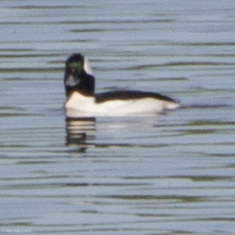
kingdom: Animalia
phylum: Chordata
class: Aves
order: Anseriformes
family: Anatidae
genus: Bucephala
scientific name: Bucephala albeola
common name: Bufflehead
